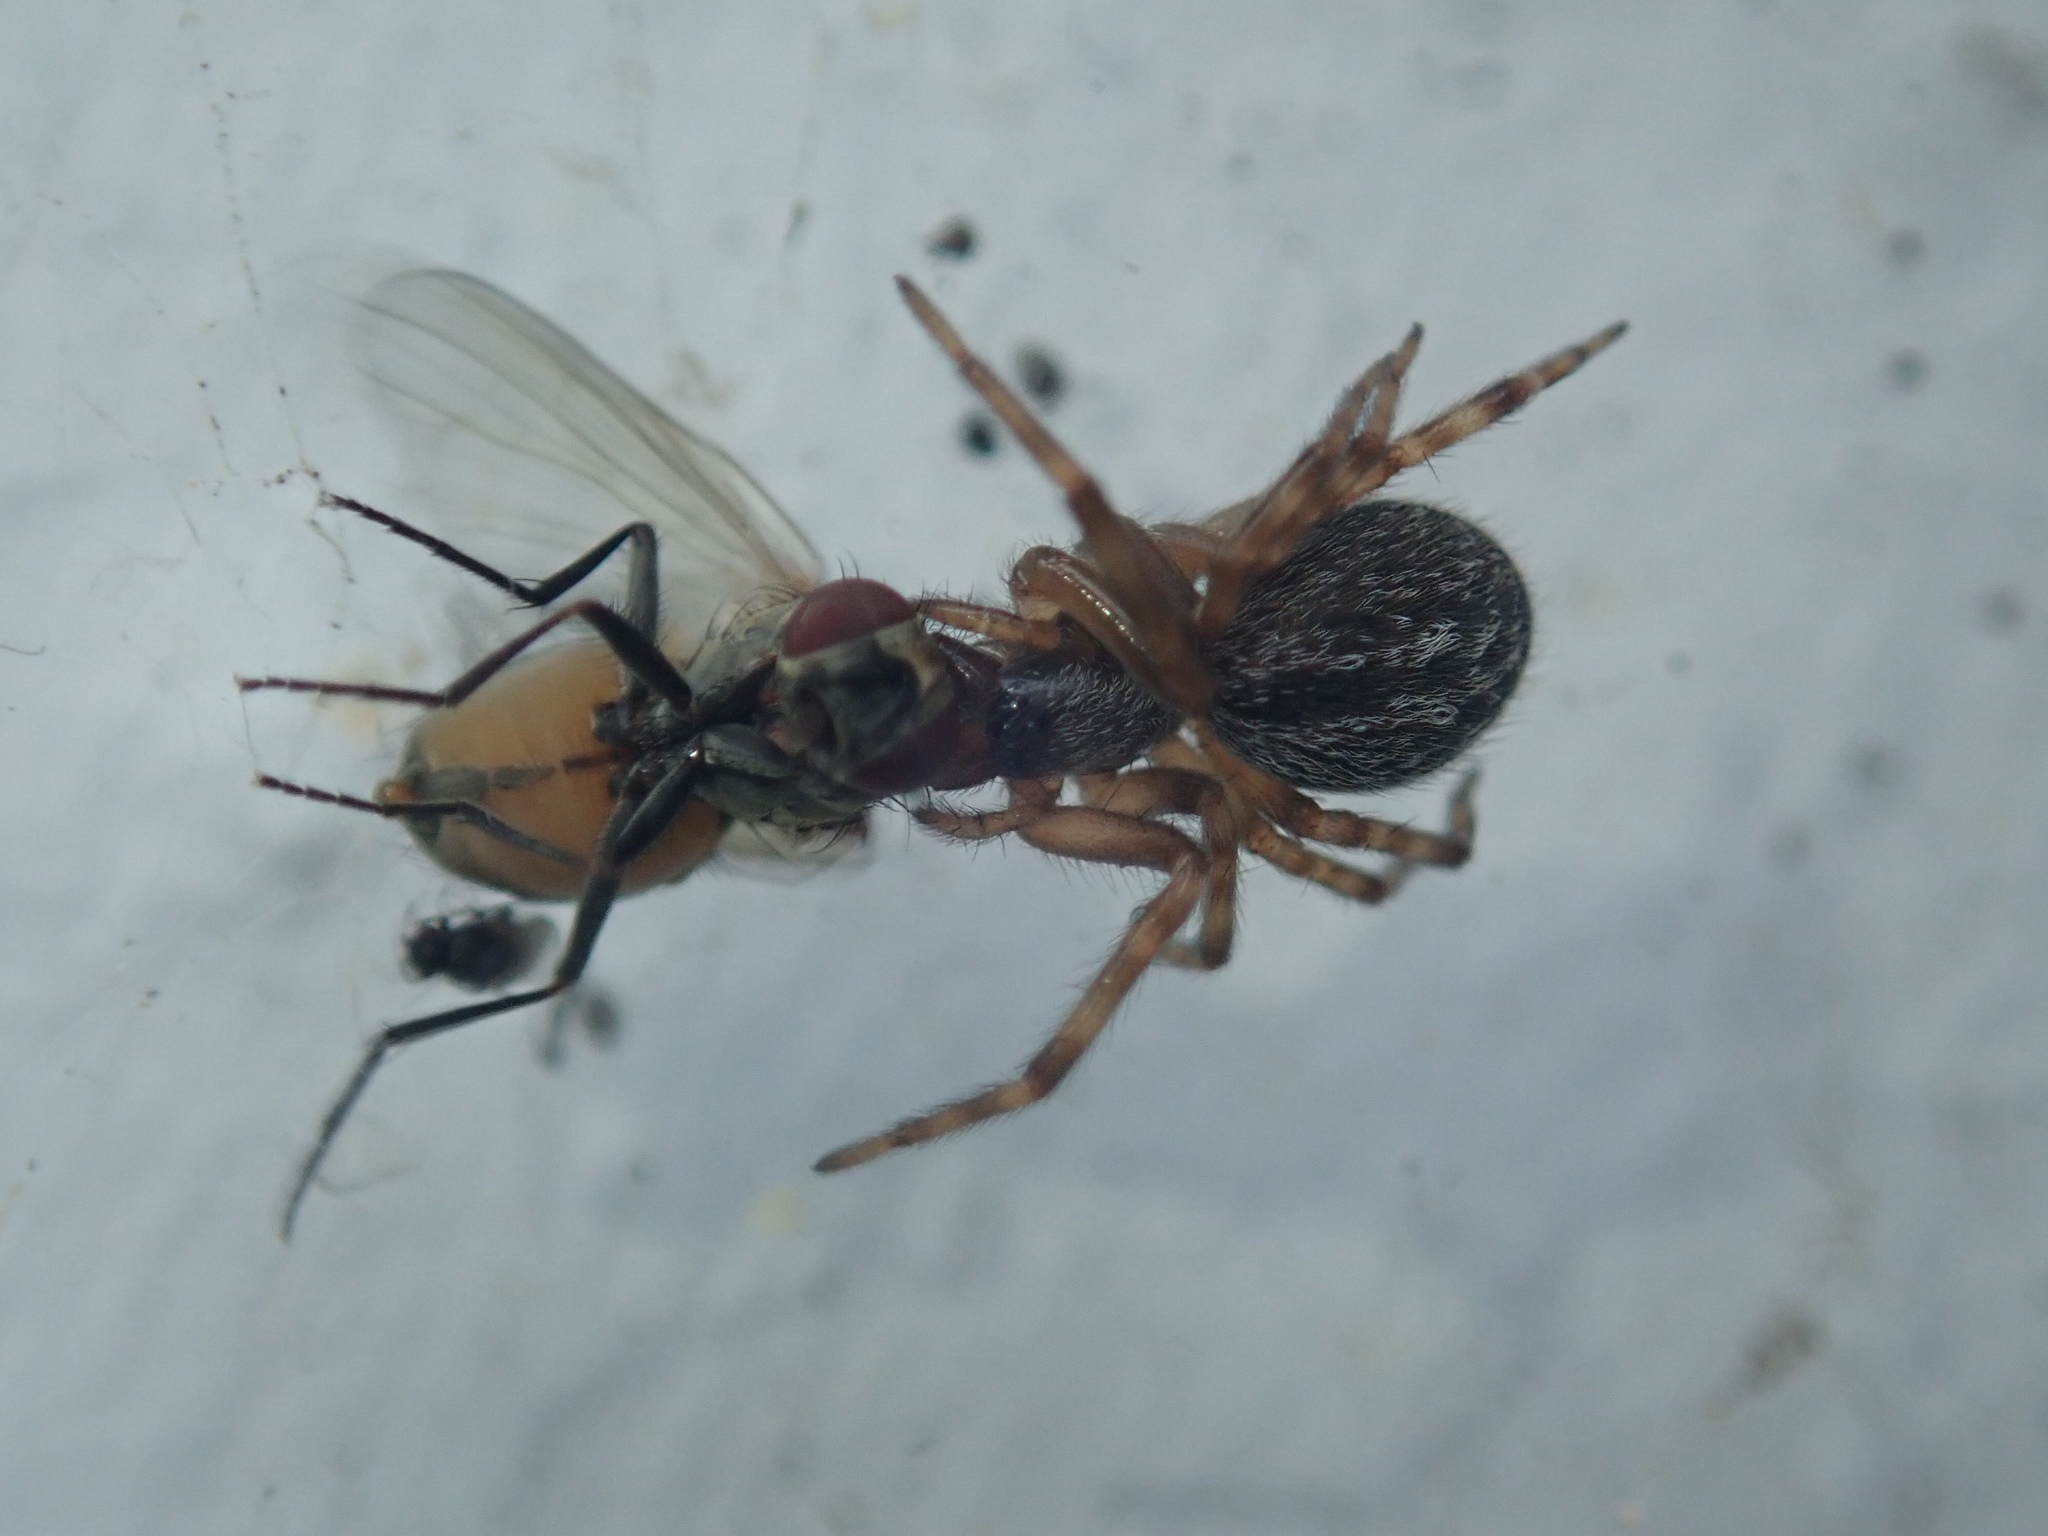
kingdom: Animalia
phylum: Arthropoda
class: Arachnida
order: Araneae
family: Desidae
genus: Badumna
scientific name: Badumna longinqua
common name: Gray house spider
